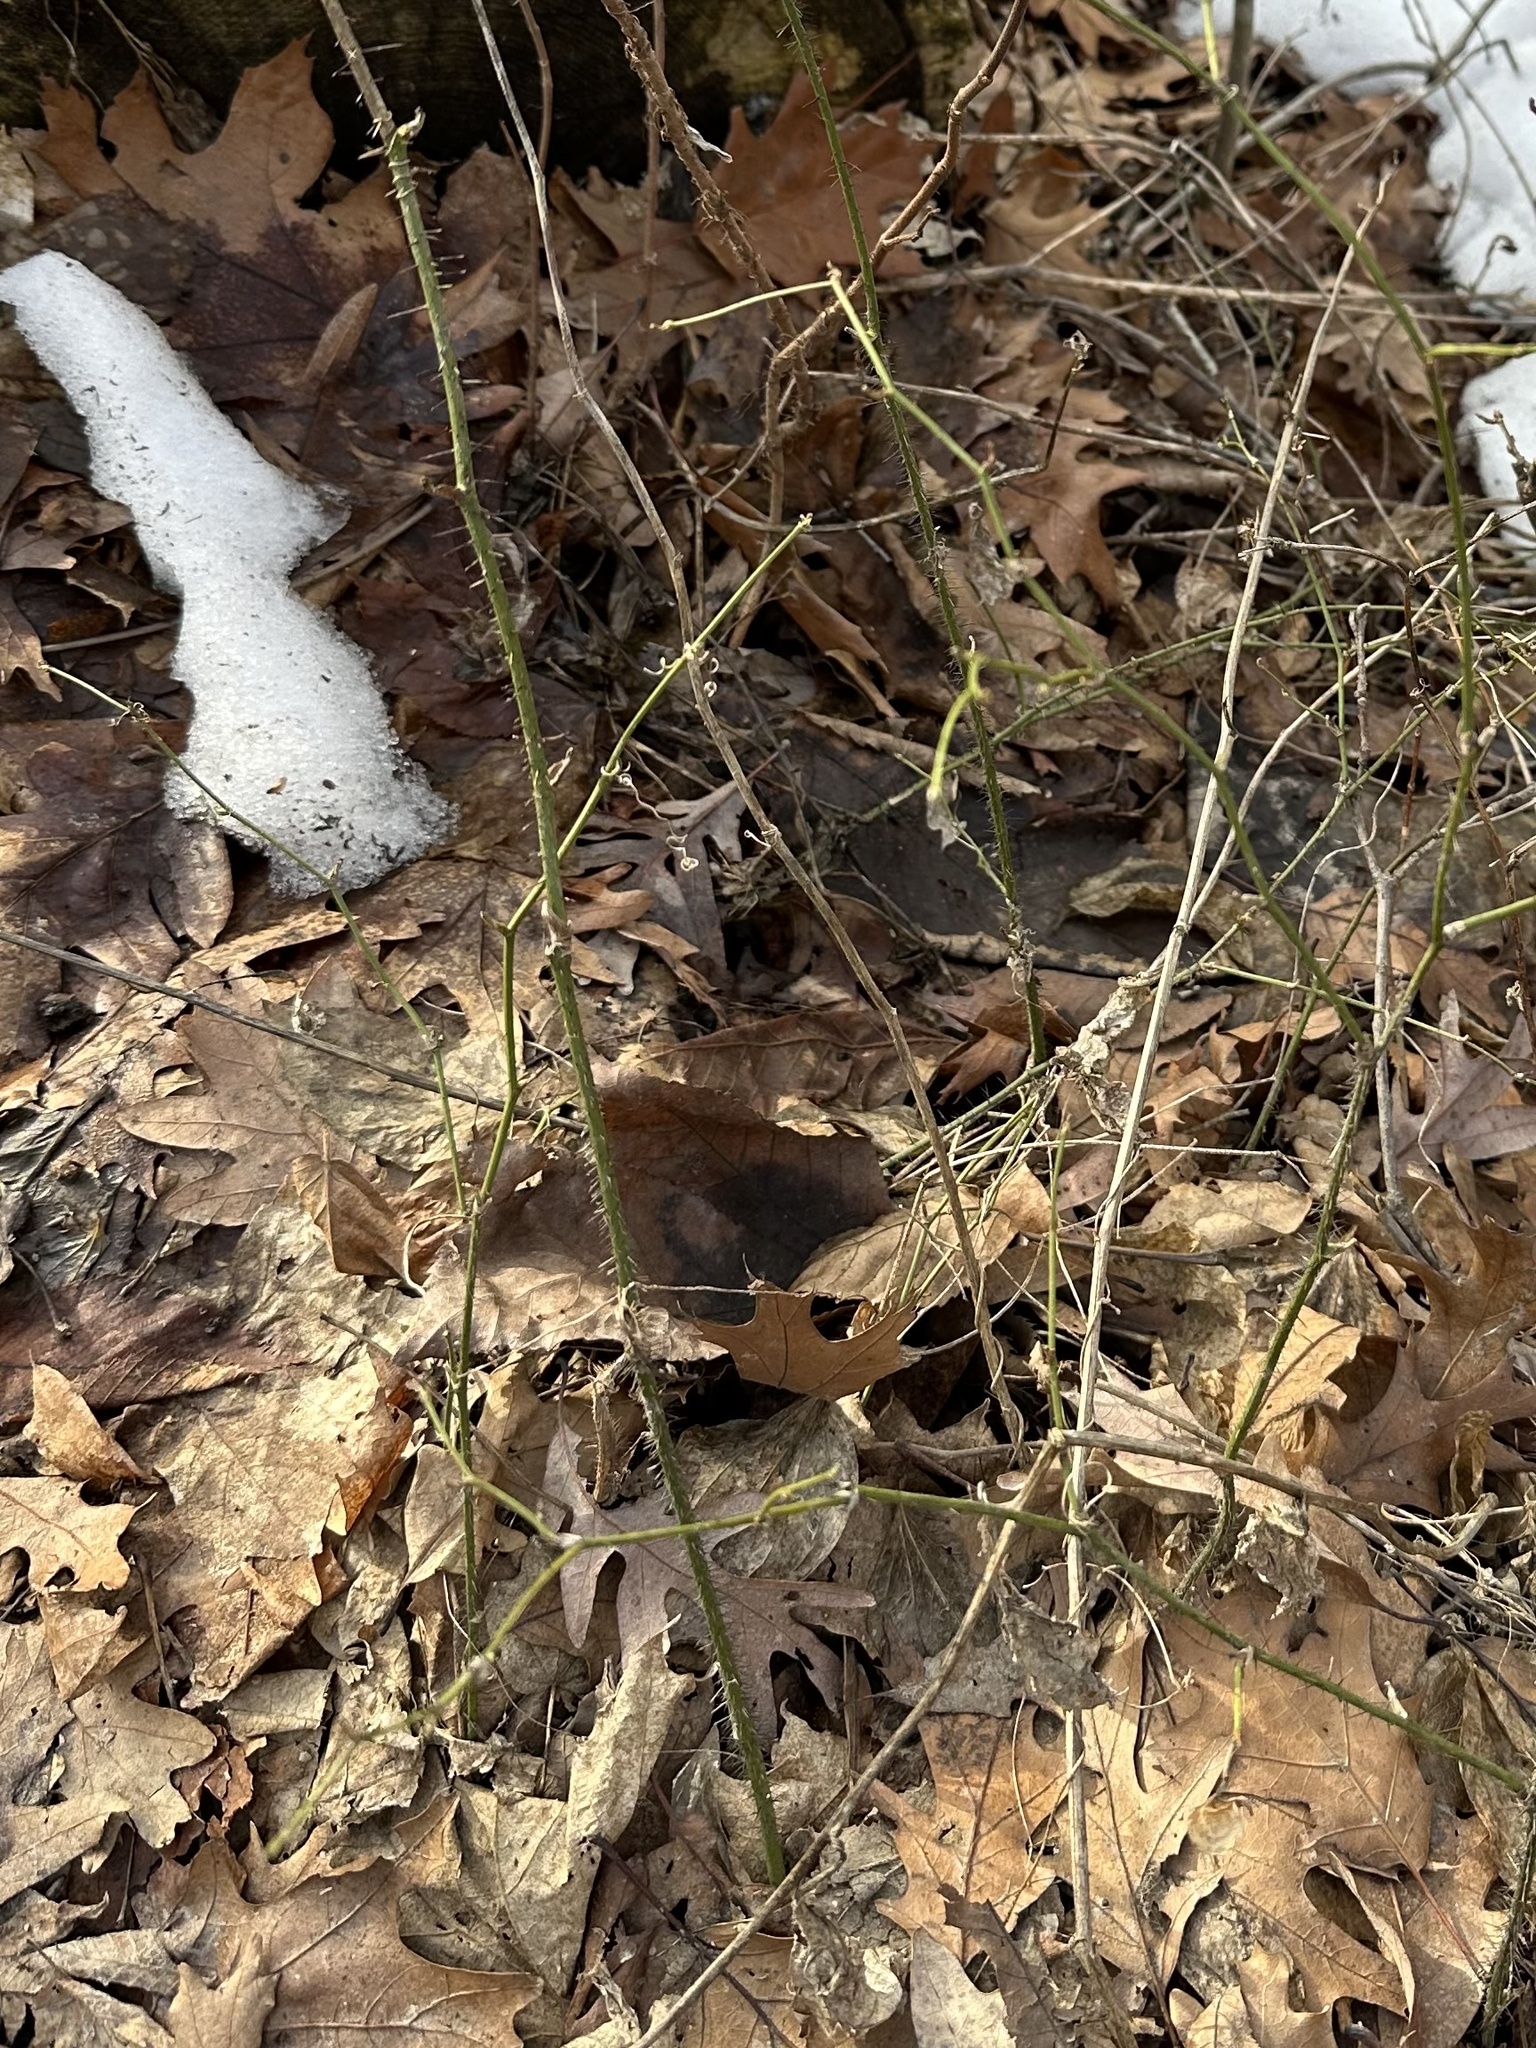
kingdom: Plantae
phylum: Tracheophyta
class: Liliopsida
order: Liliales
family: Smilacaceae
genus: Smilax
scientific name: Smilax tamnoides
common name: Hellfetter
